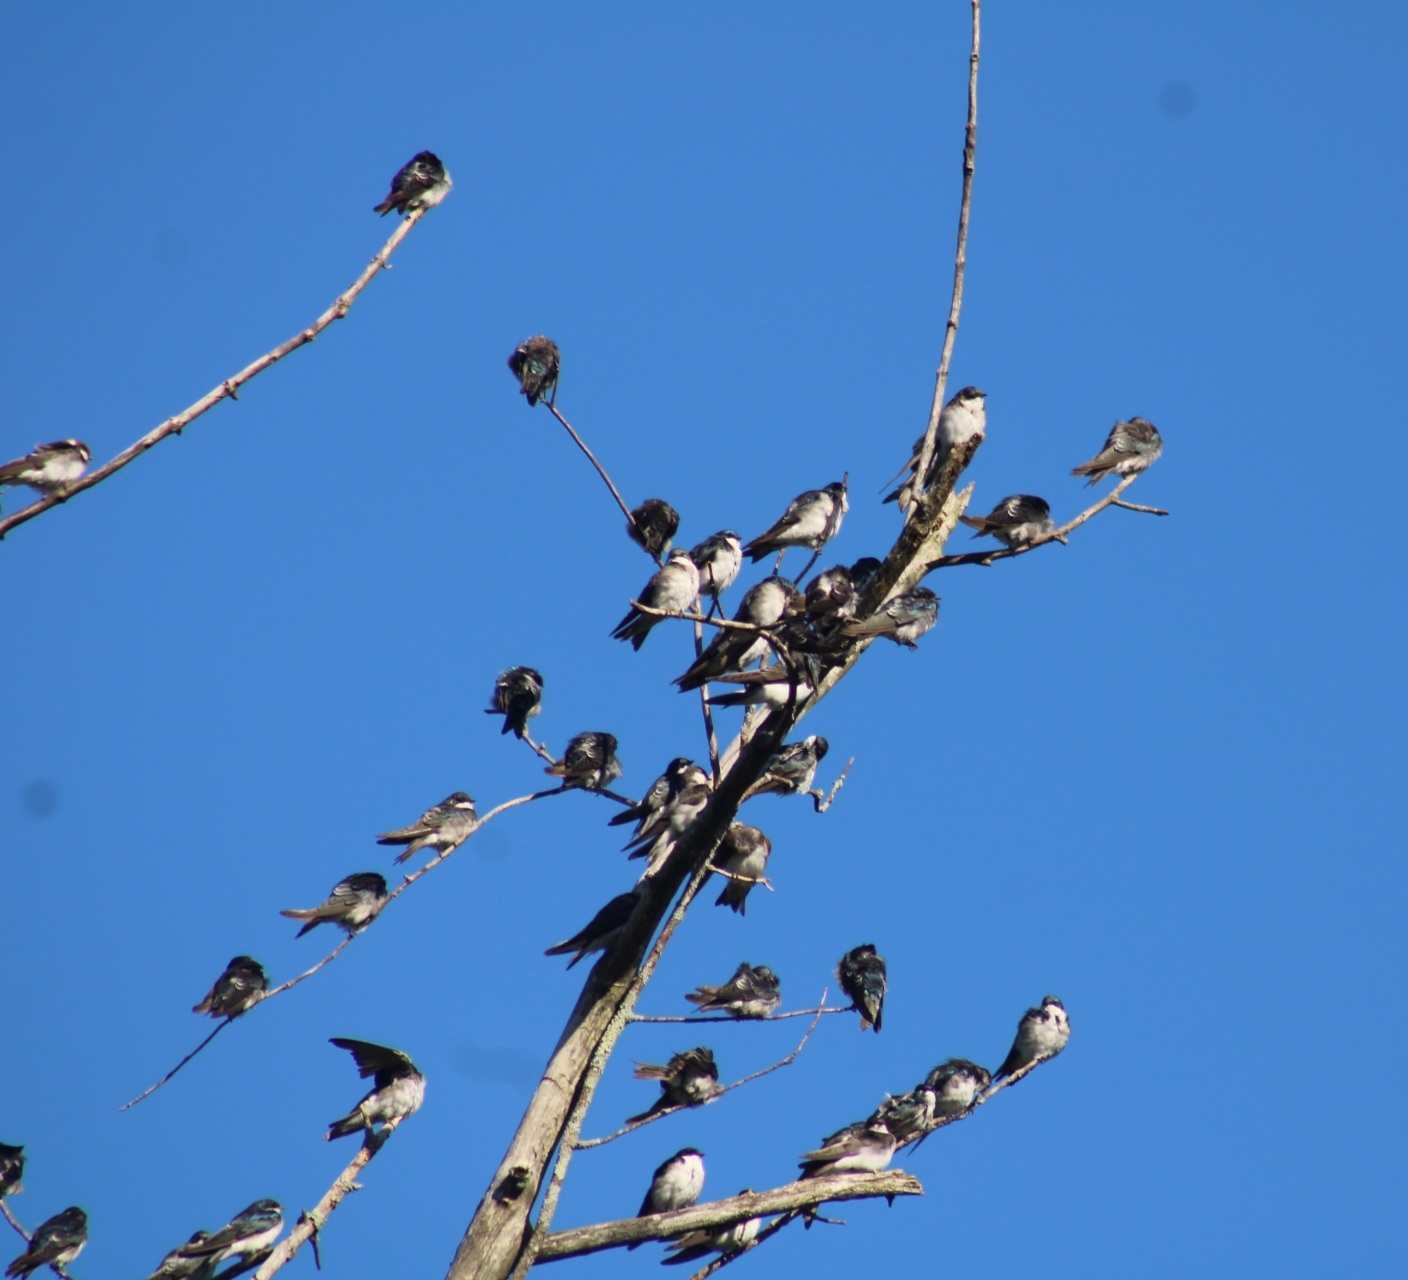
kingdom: Animalia
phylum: Chordata
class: Aves
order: Passeriformes
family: Hirundinidae
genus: Tachycineta
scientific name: Tachycineta bicolor
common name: Tree swallow
